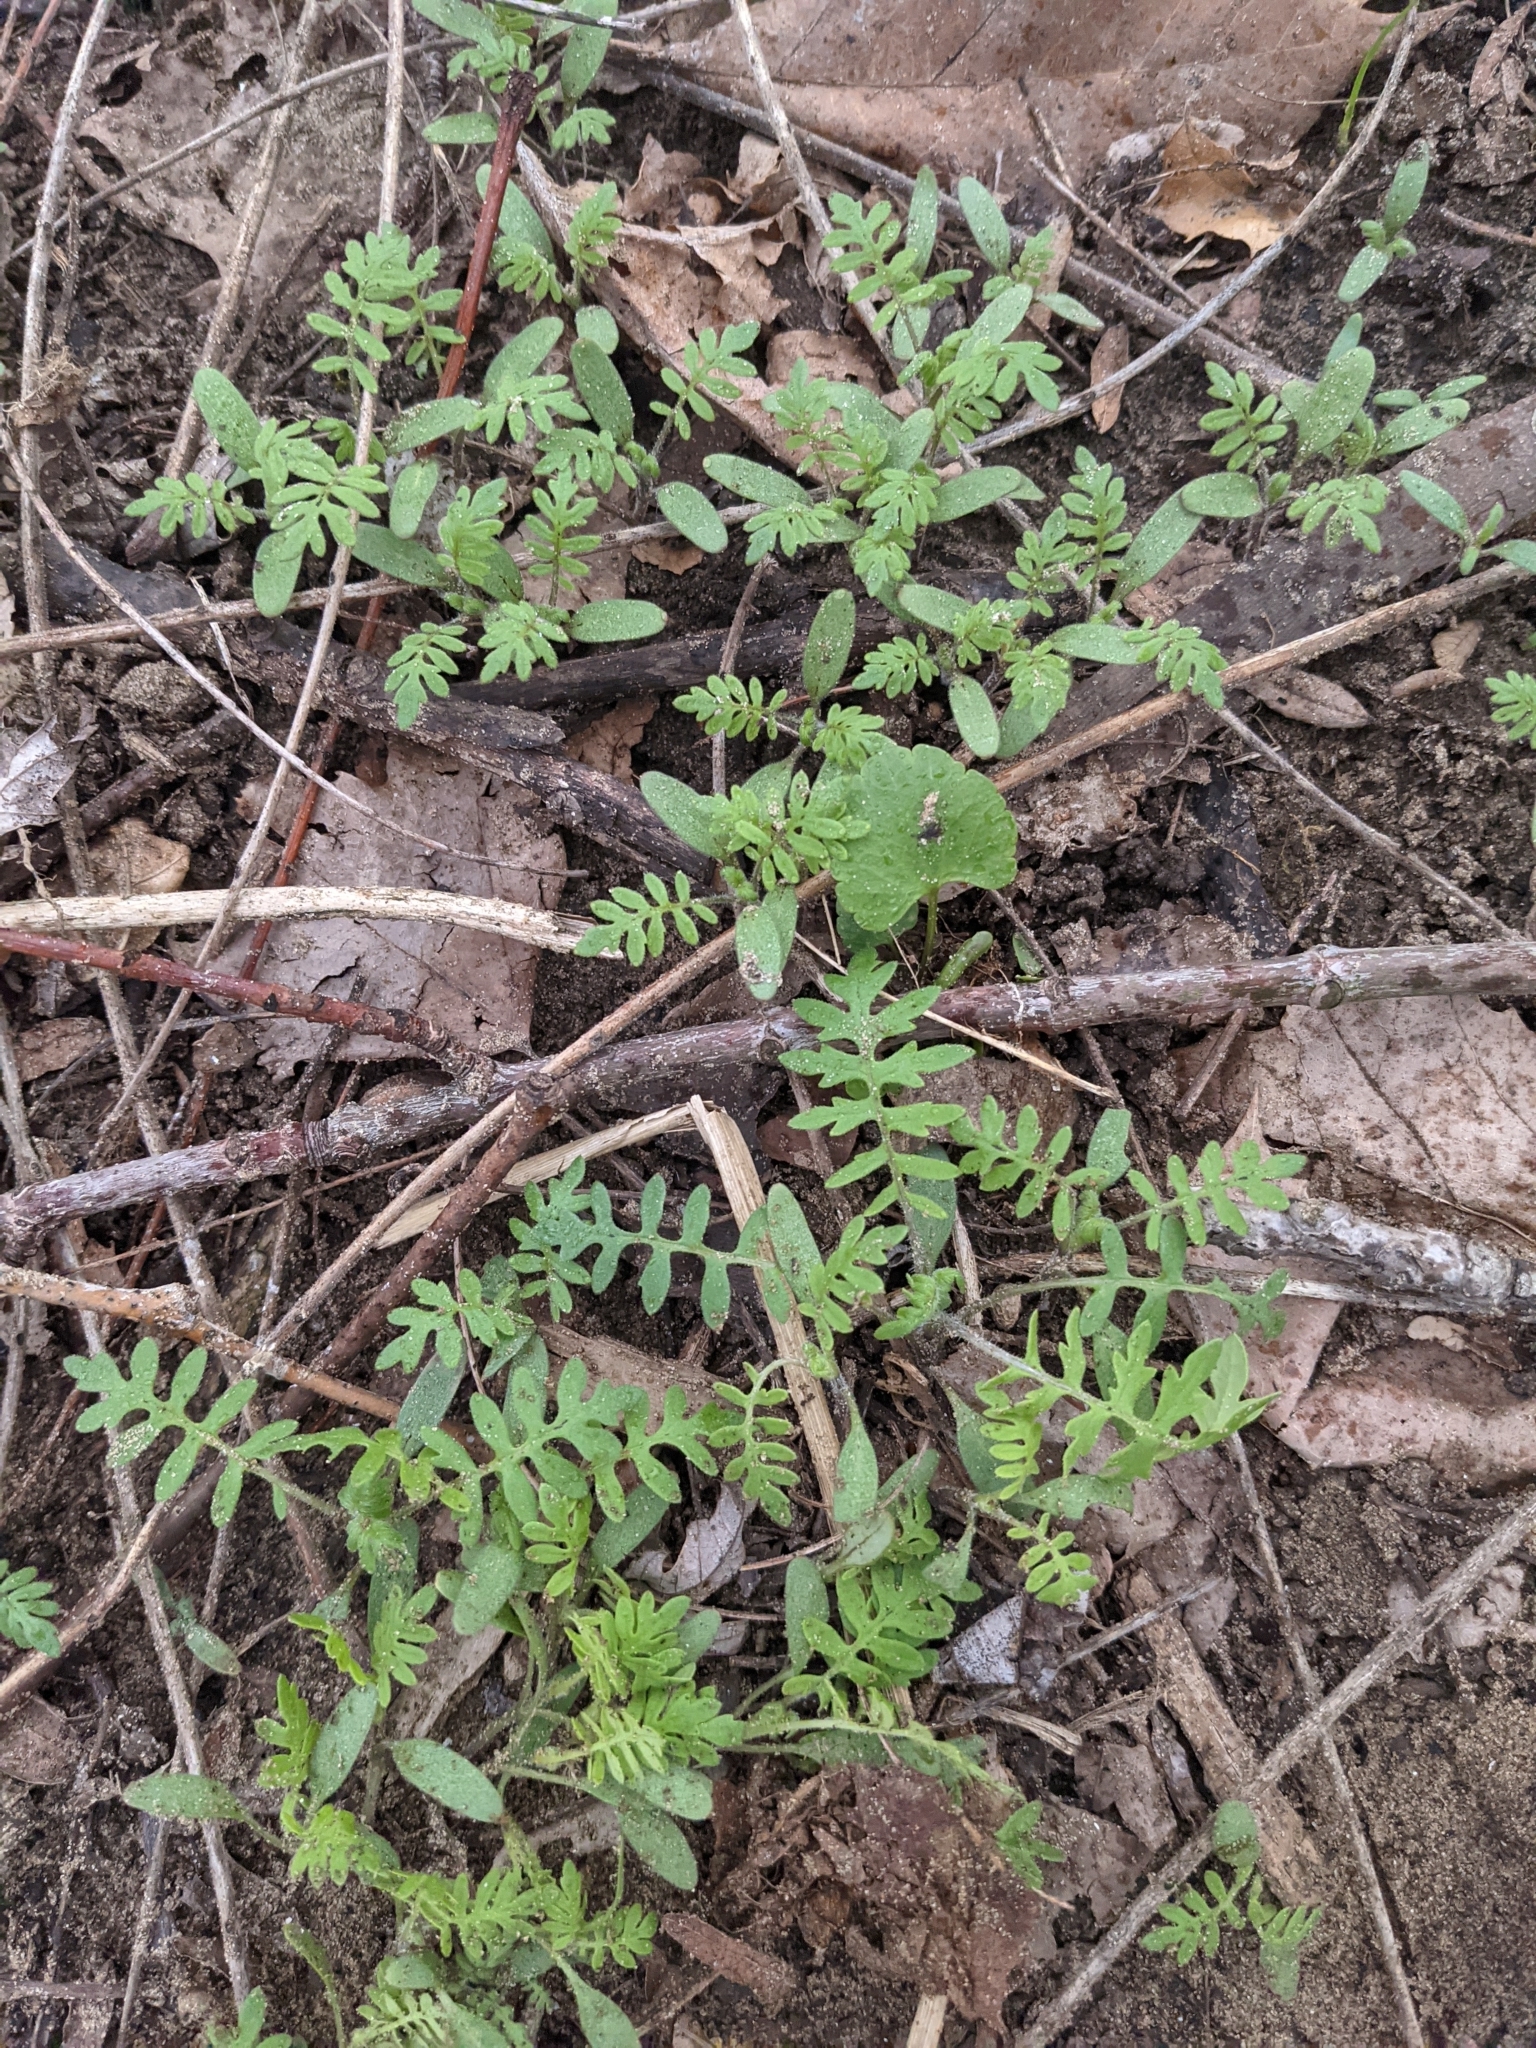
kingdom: Plantae
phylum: Tracheophyta
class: Magnoliopsida
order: Boraginales
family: Hydrophyllaceae
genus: Ellisia
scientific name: Ellisia nyctelea
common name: Aunt lucy
